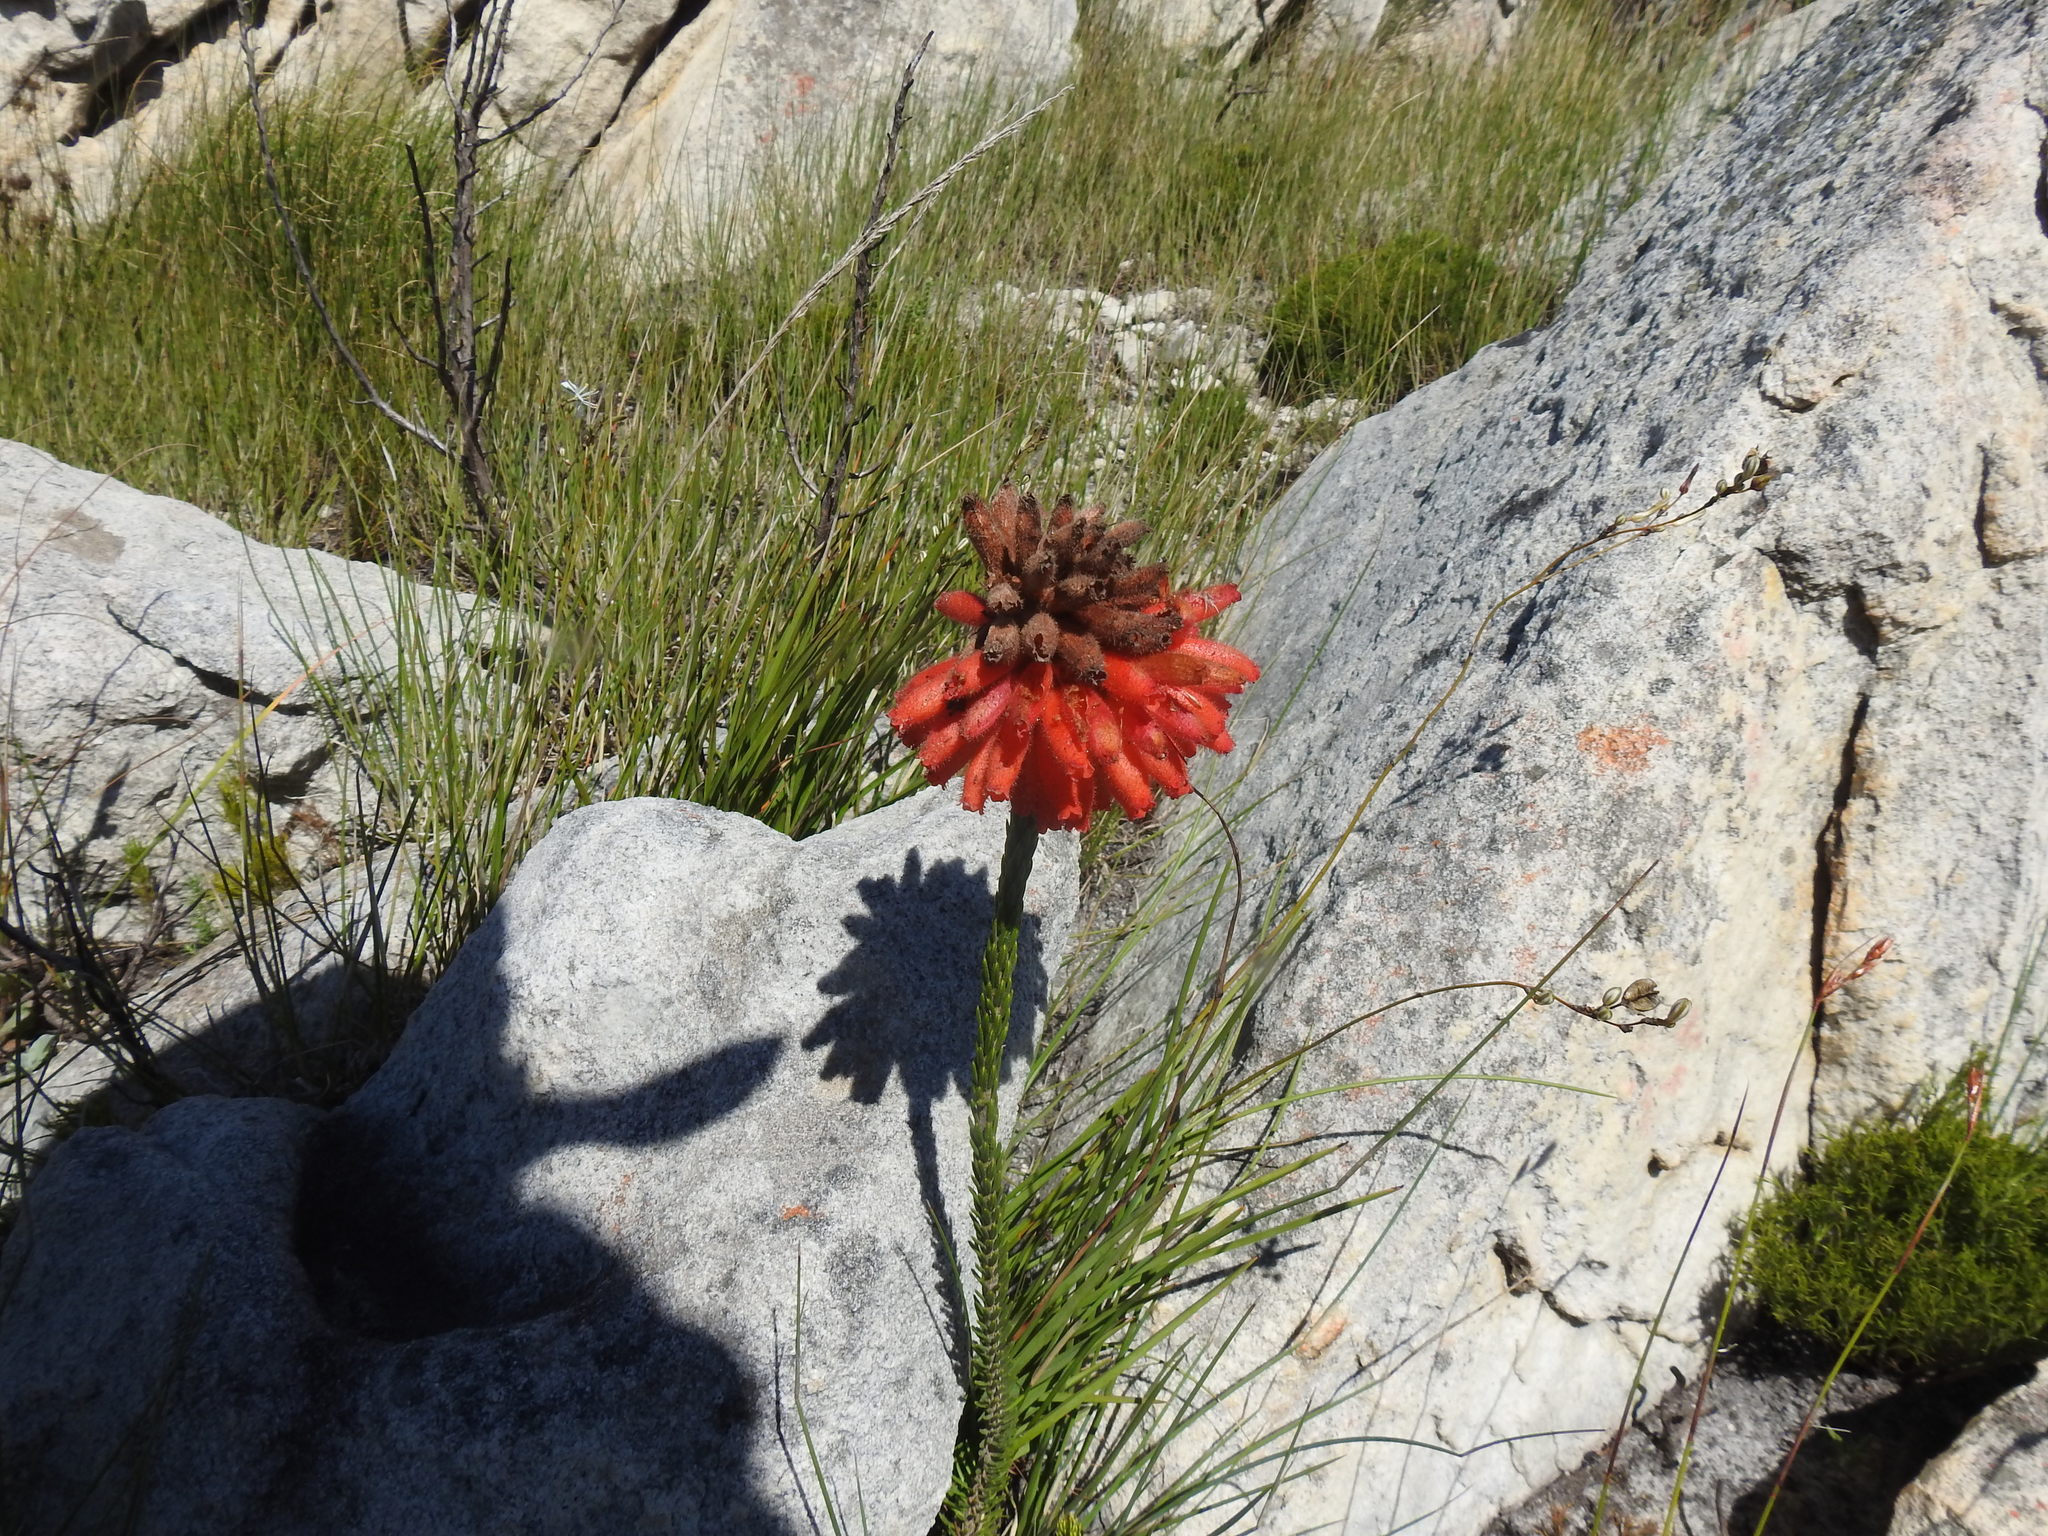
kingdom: Plantae
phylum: Tracheophyta
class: Magnoliopsida
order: Ericales
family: Ericaceae
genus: Erica
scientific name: Erica cerinthoides
